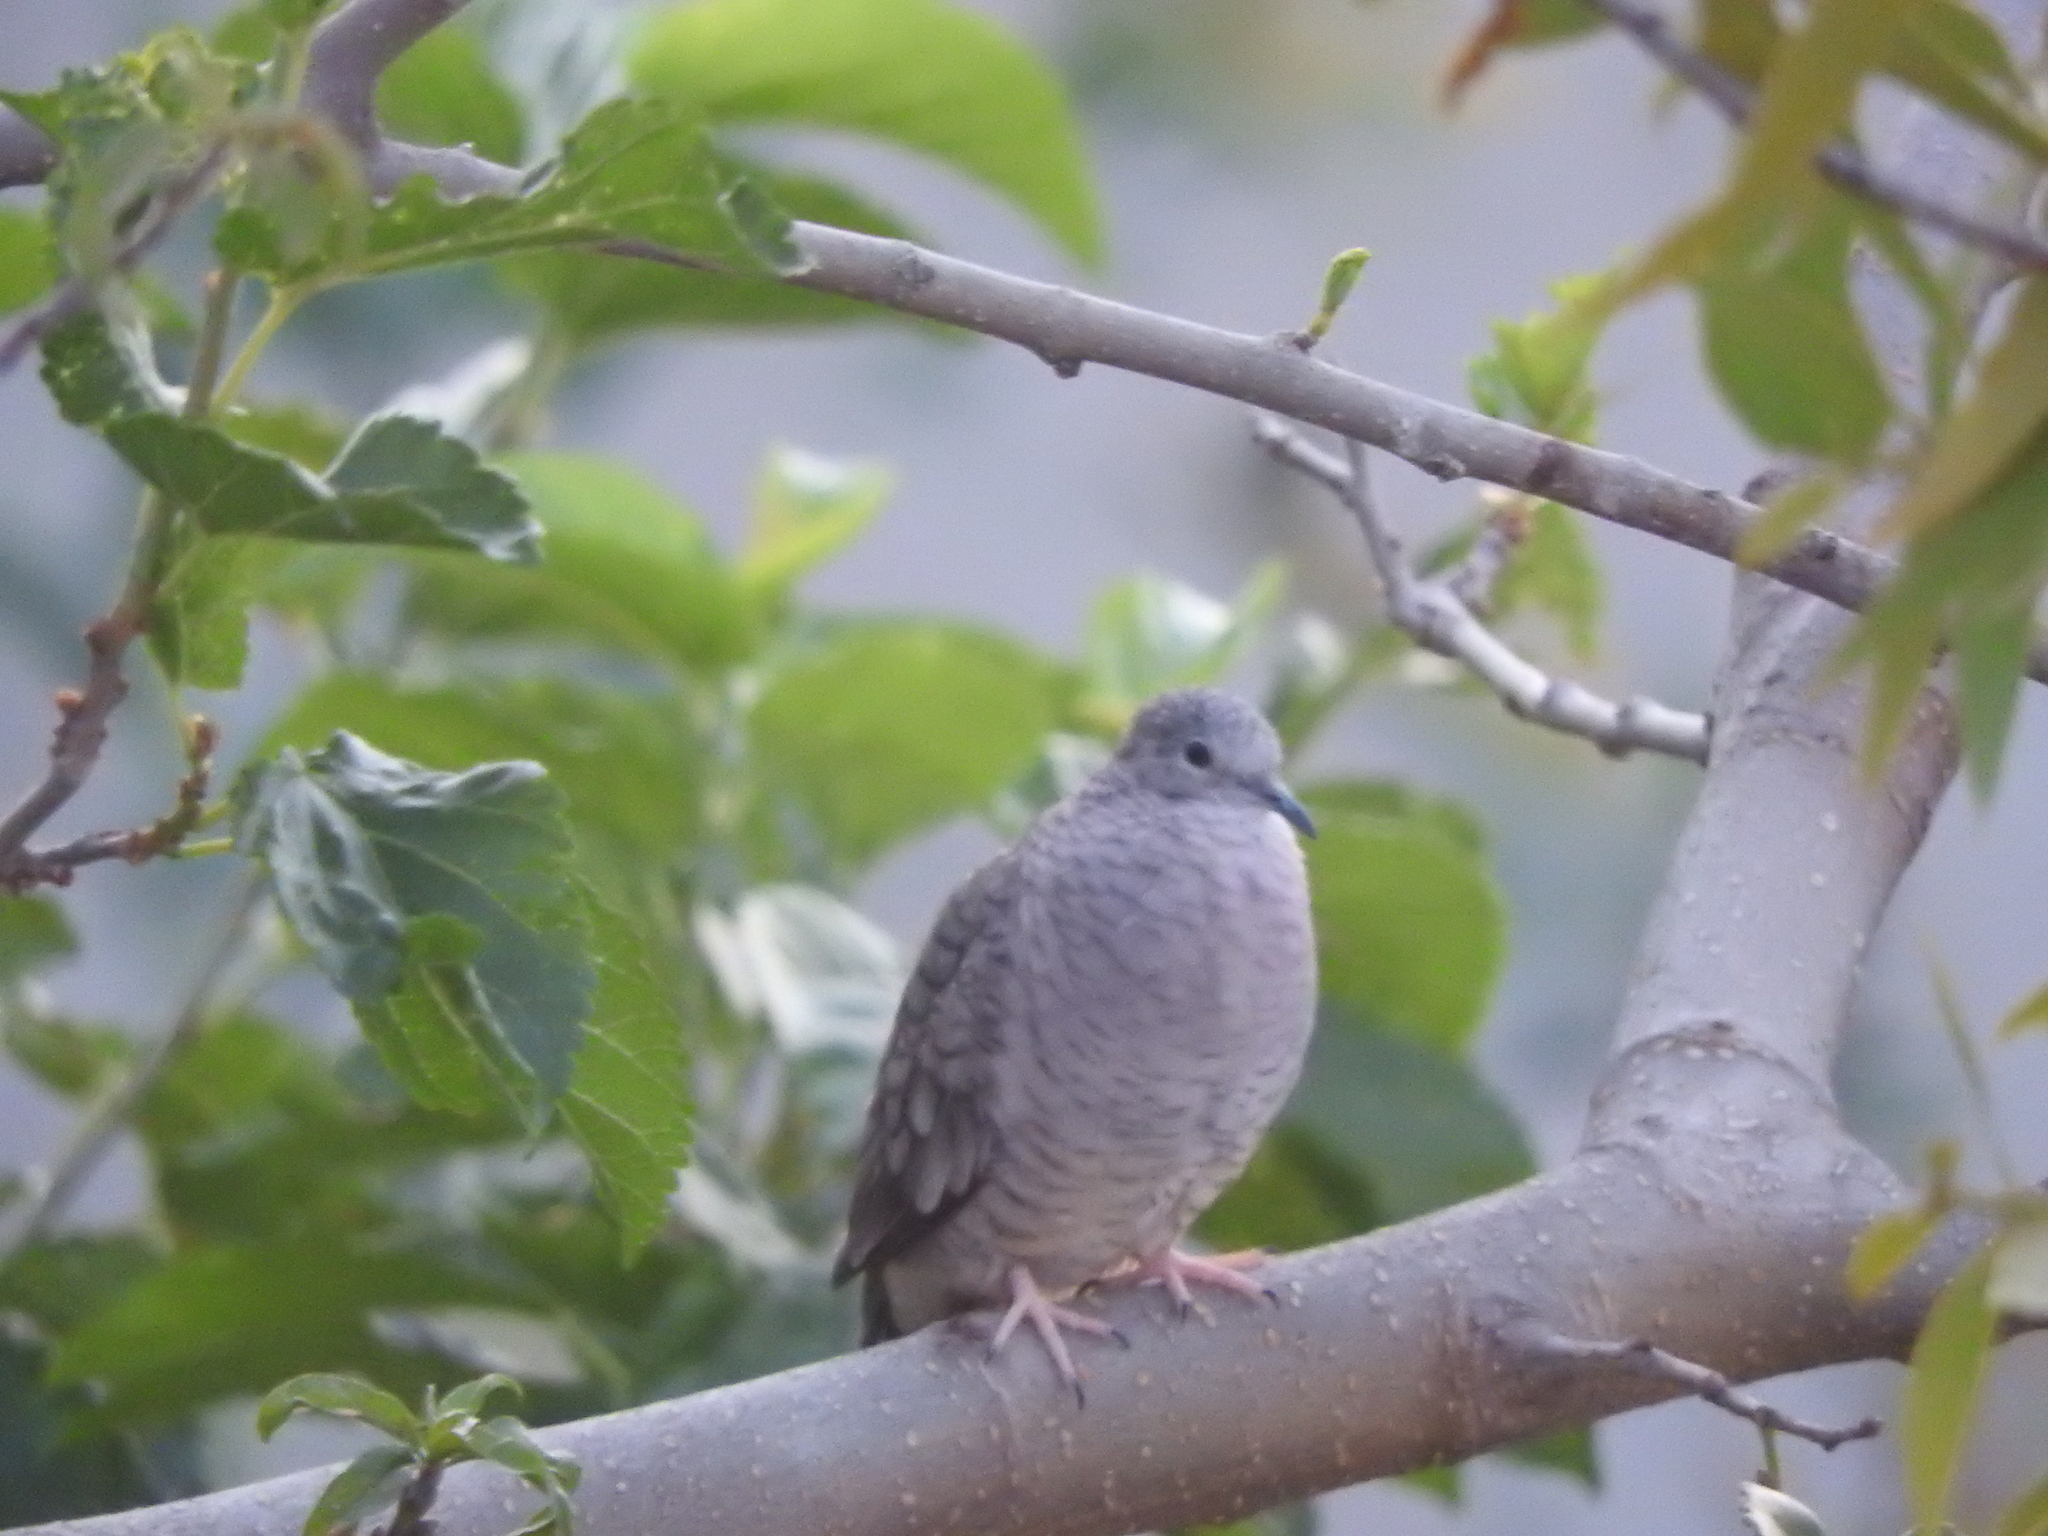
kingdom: Animalia
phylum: Chordata
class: Aves
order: Columbiformes
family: Columbidae
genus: Columbina
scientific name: Columbina inca
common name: Inca dove
